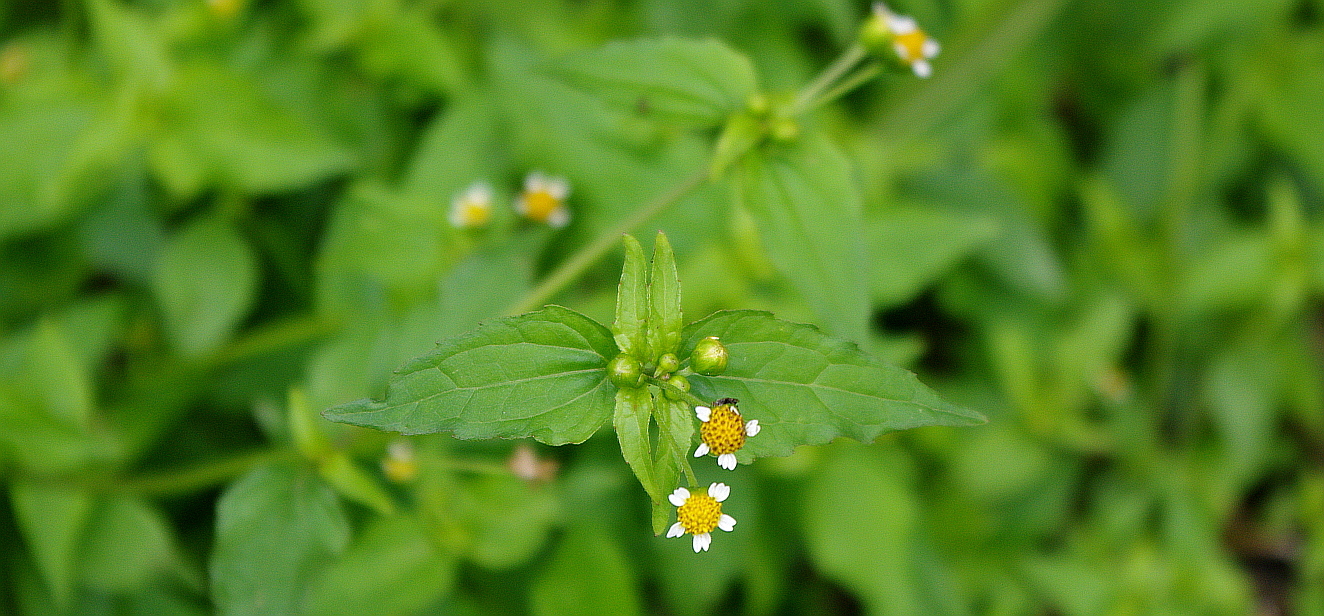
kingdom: Plantae
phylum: Tracheophyta
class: Magnoliopsida
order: Asterales
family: Asteraceae
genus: Galinsoga
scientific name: Galinsoga parviflora
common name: Gallant soldier
